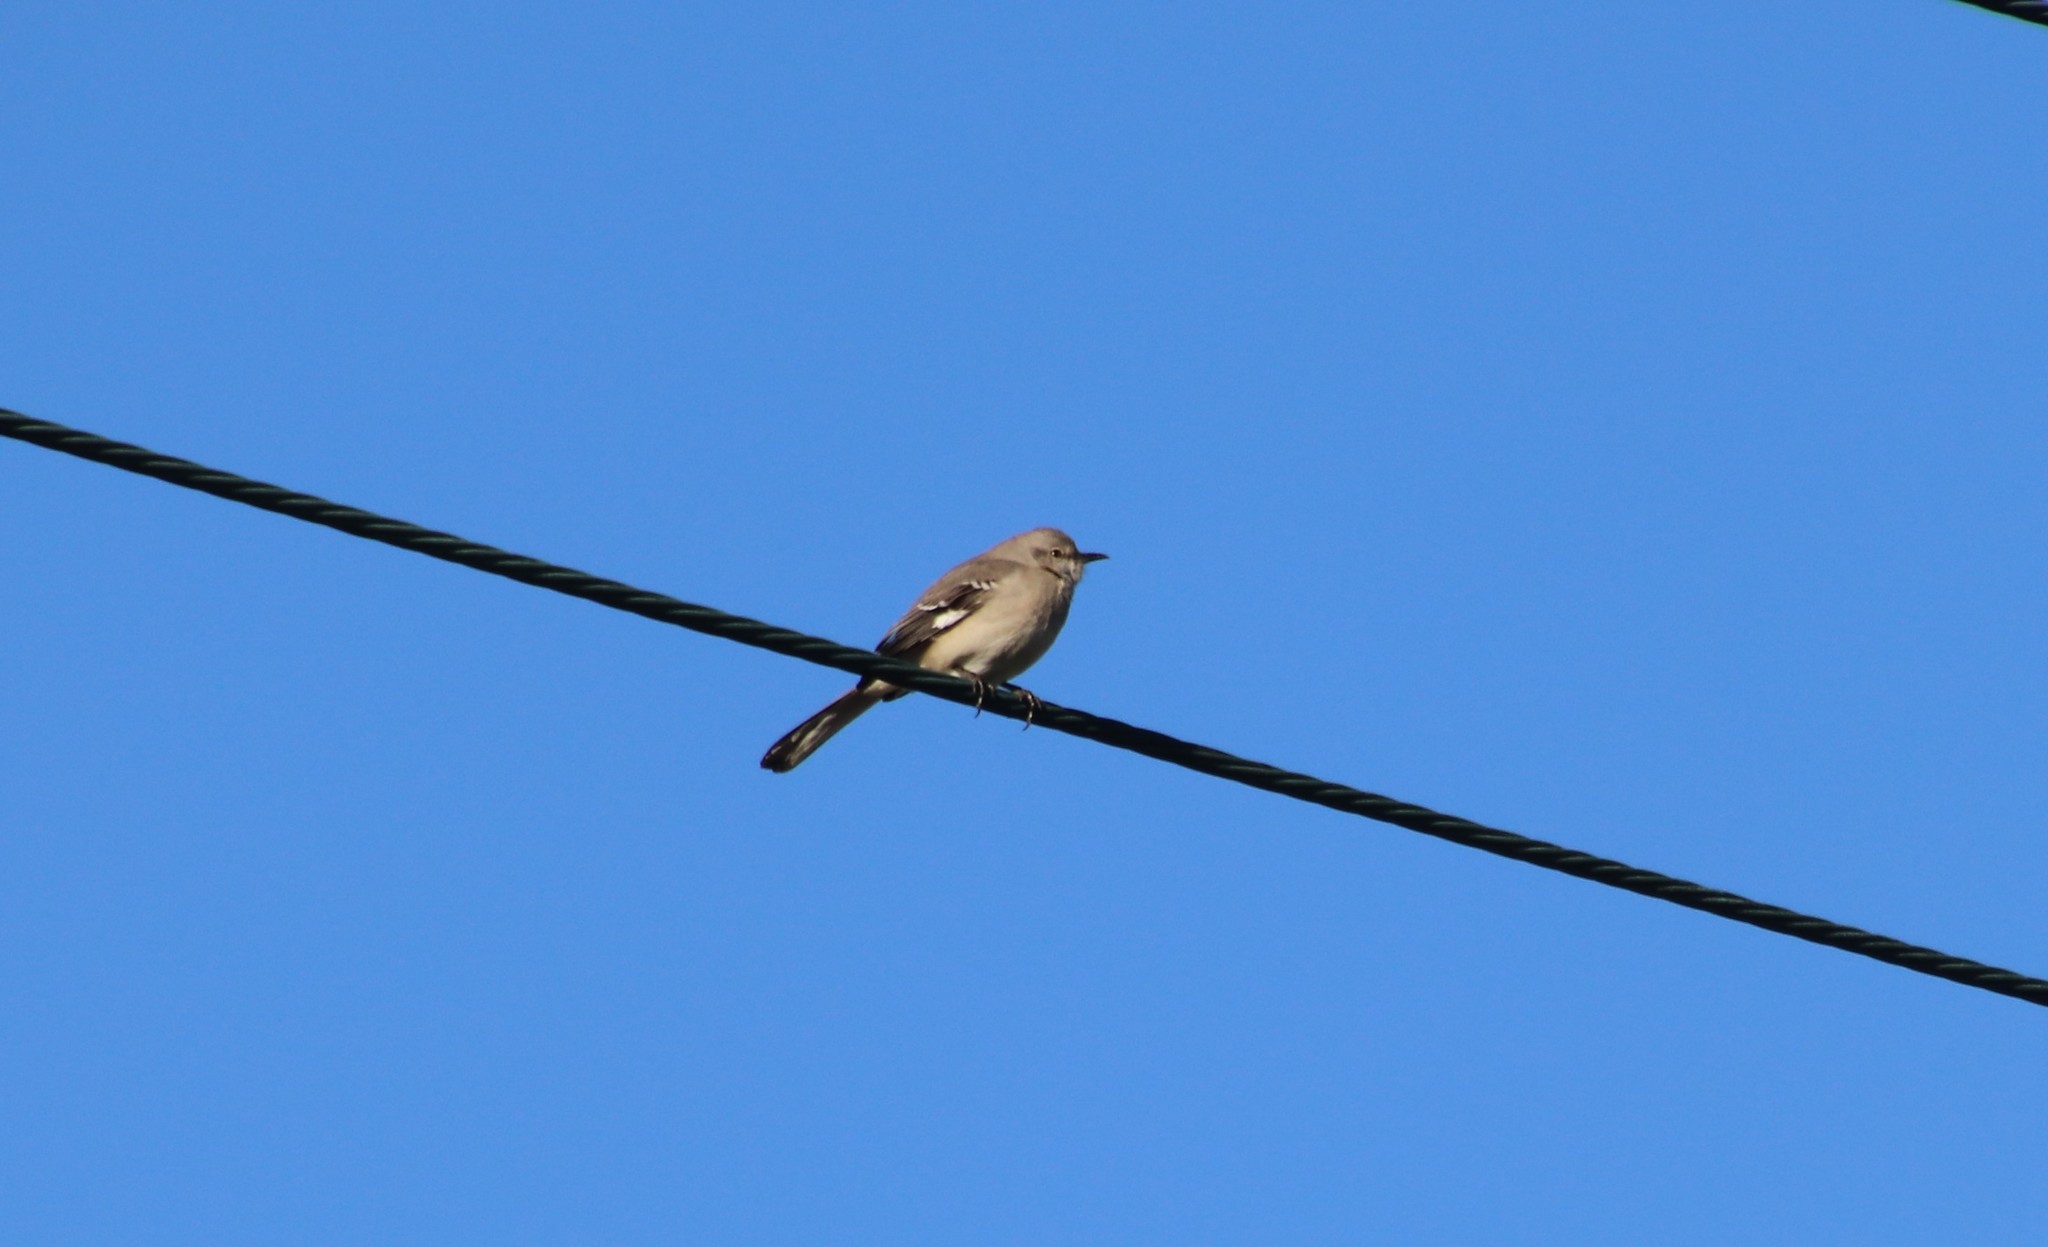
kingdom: Animalia
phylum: Chordata
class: Aves
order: Passeriformes
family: Mimidae
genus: Mimus
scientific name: Mimus polyglottos
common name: Northern mockingbird
